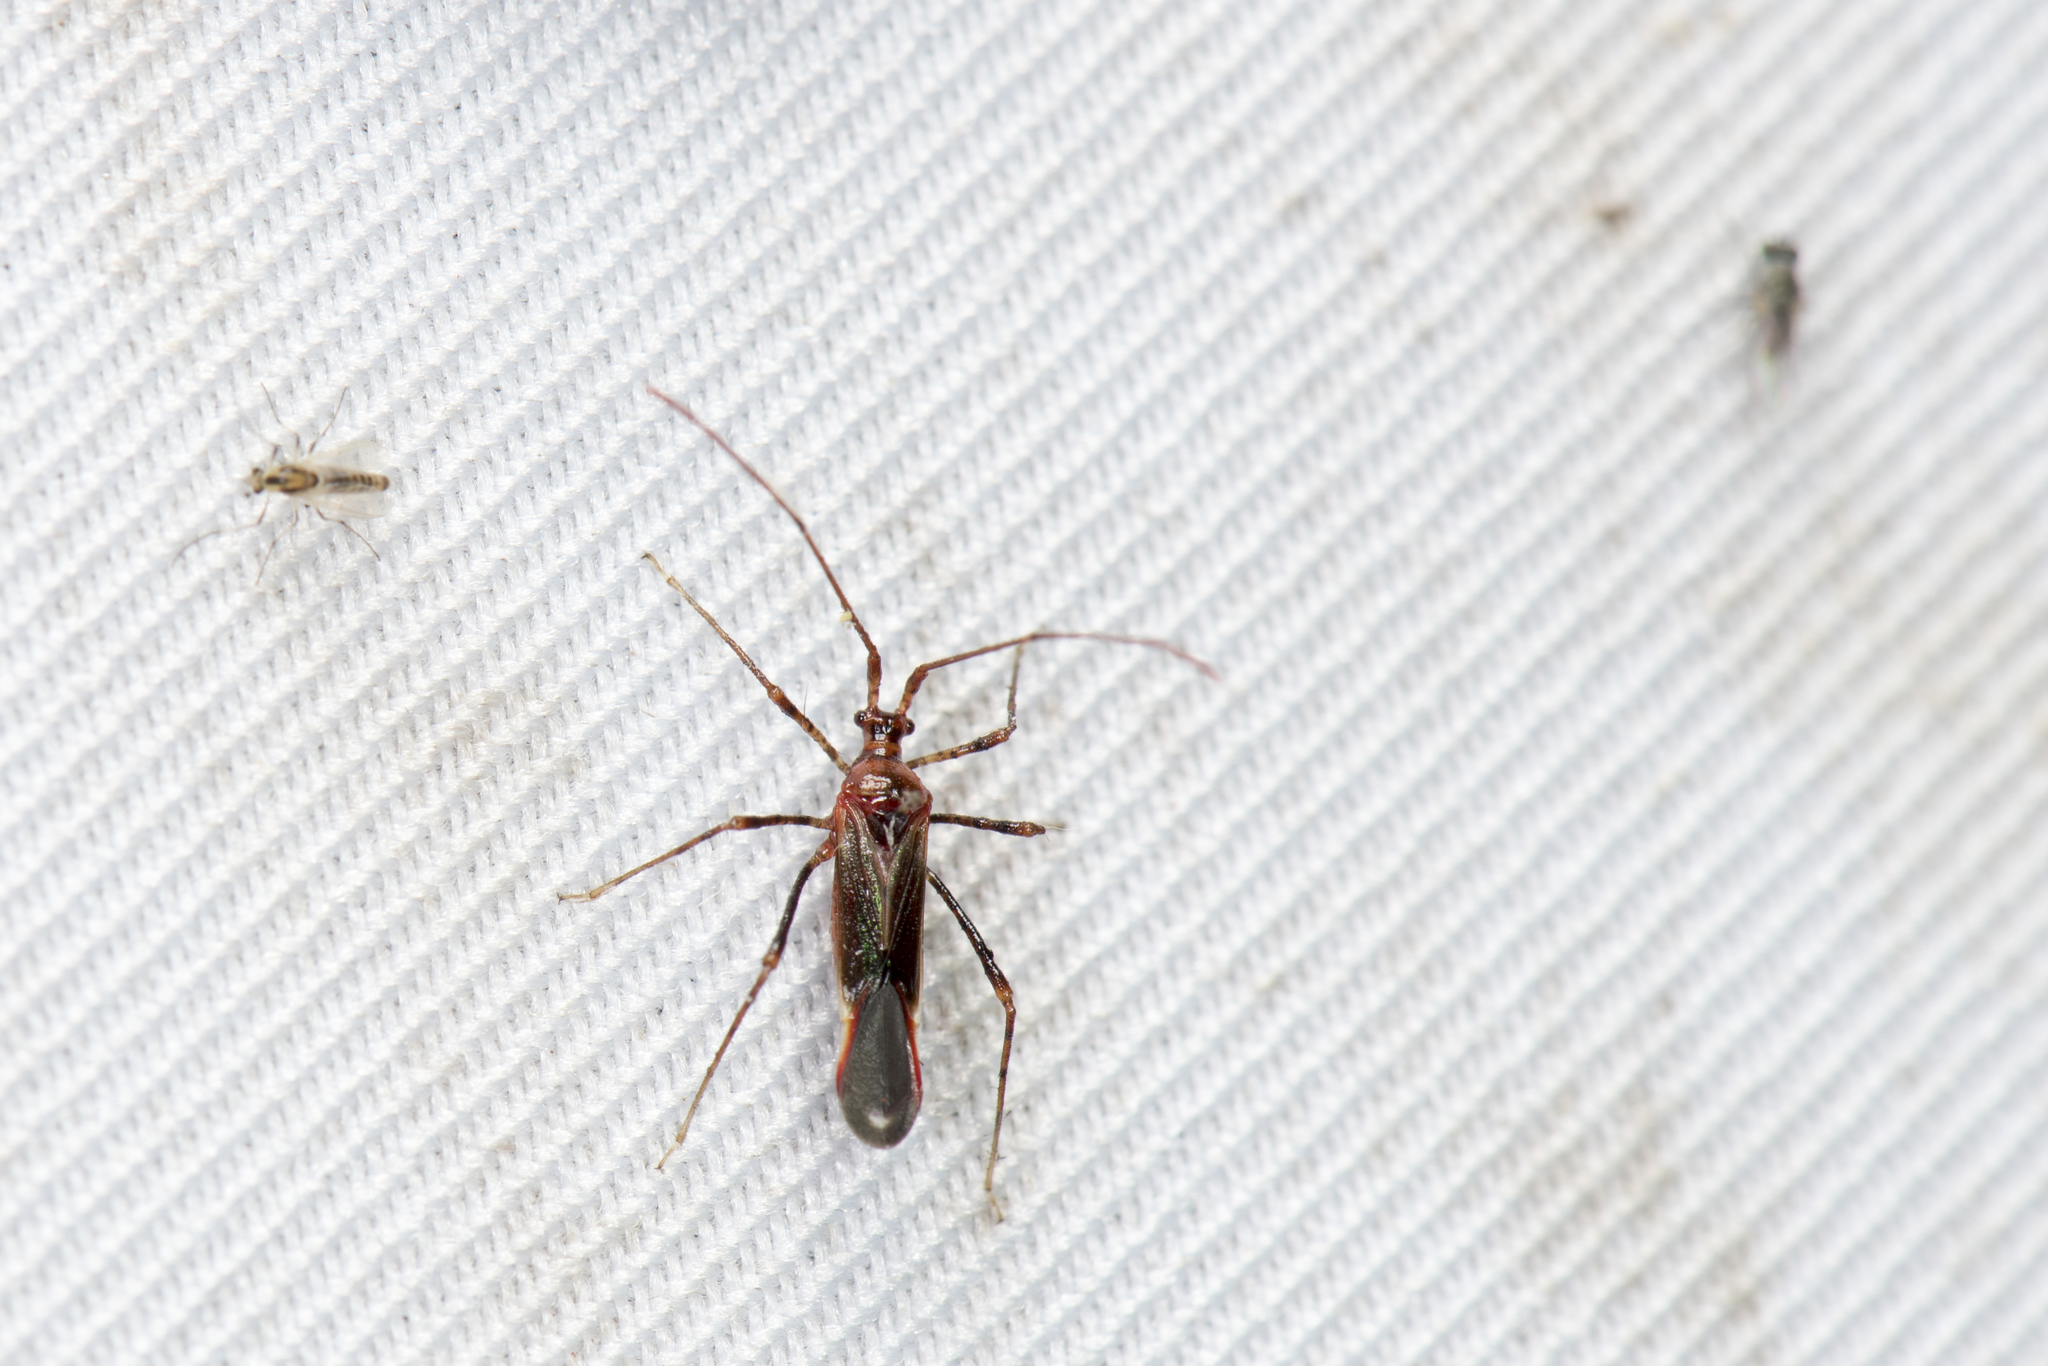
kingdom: Animalia
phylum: Arthropoda
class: Insecta
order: Hemiptera
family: Miridae
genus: Helopeltis
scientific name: Helopeltis cinchonae
